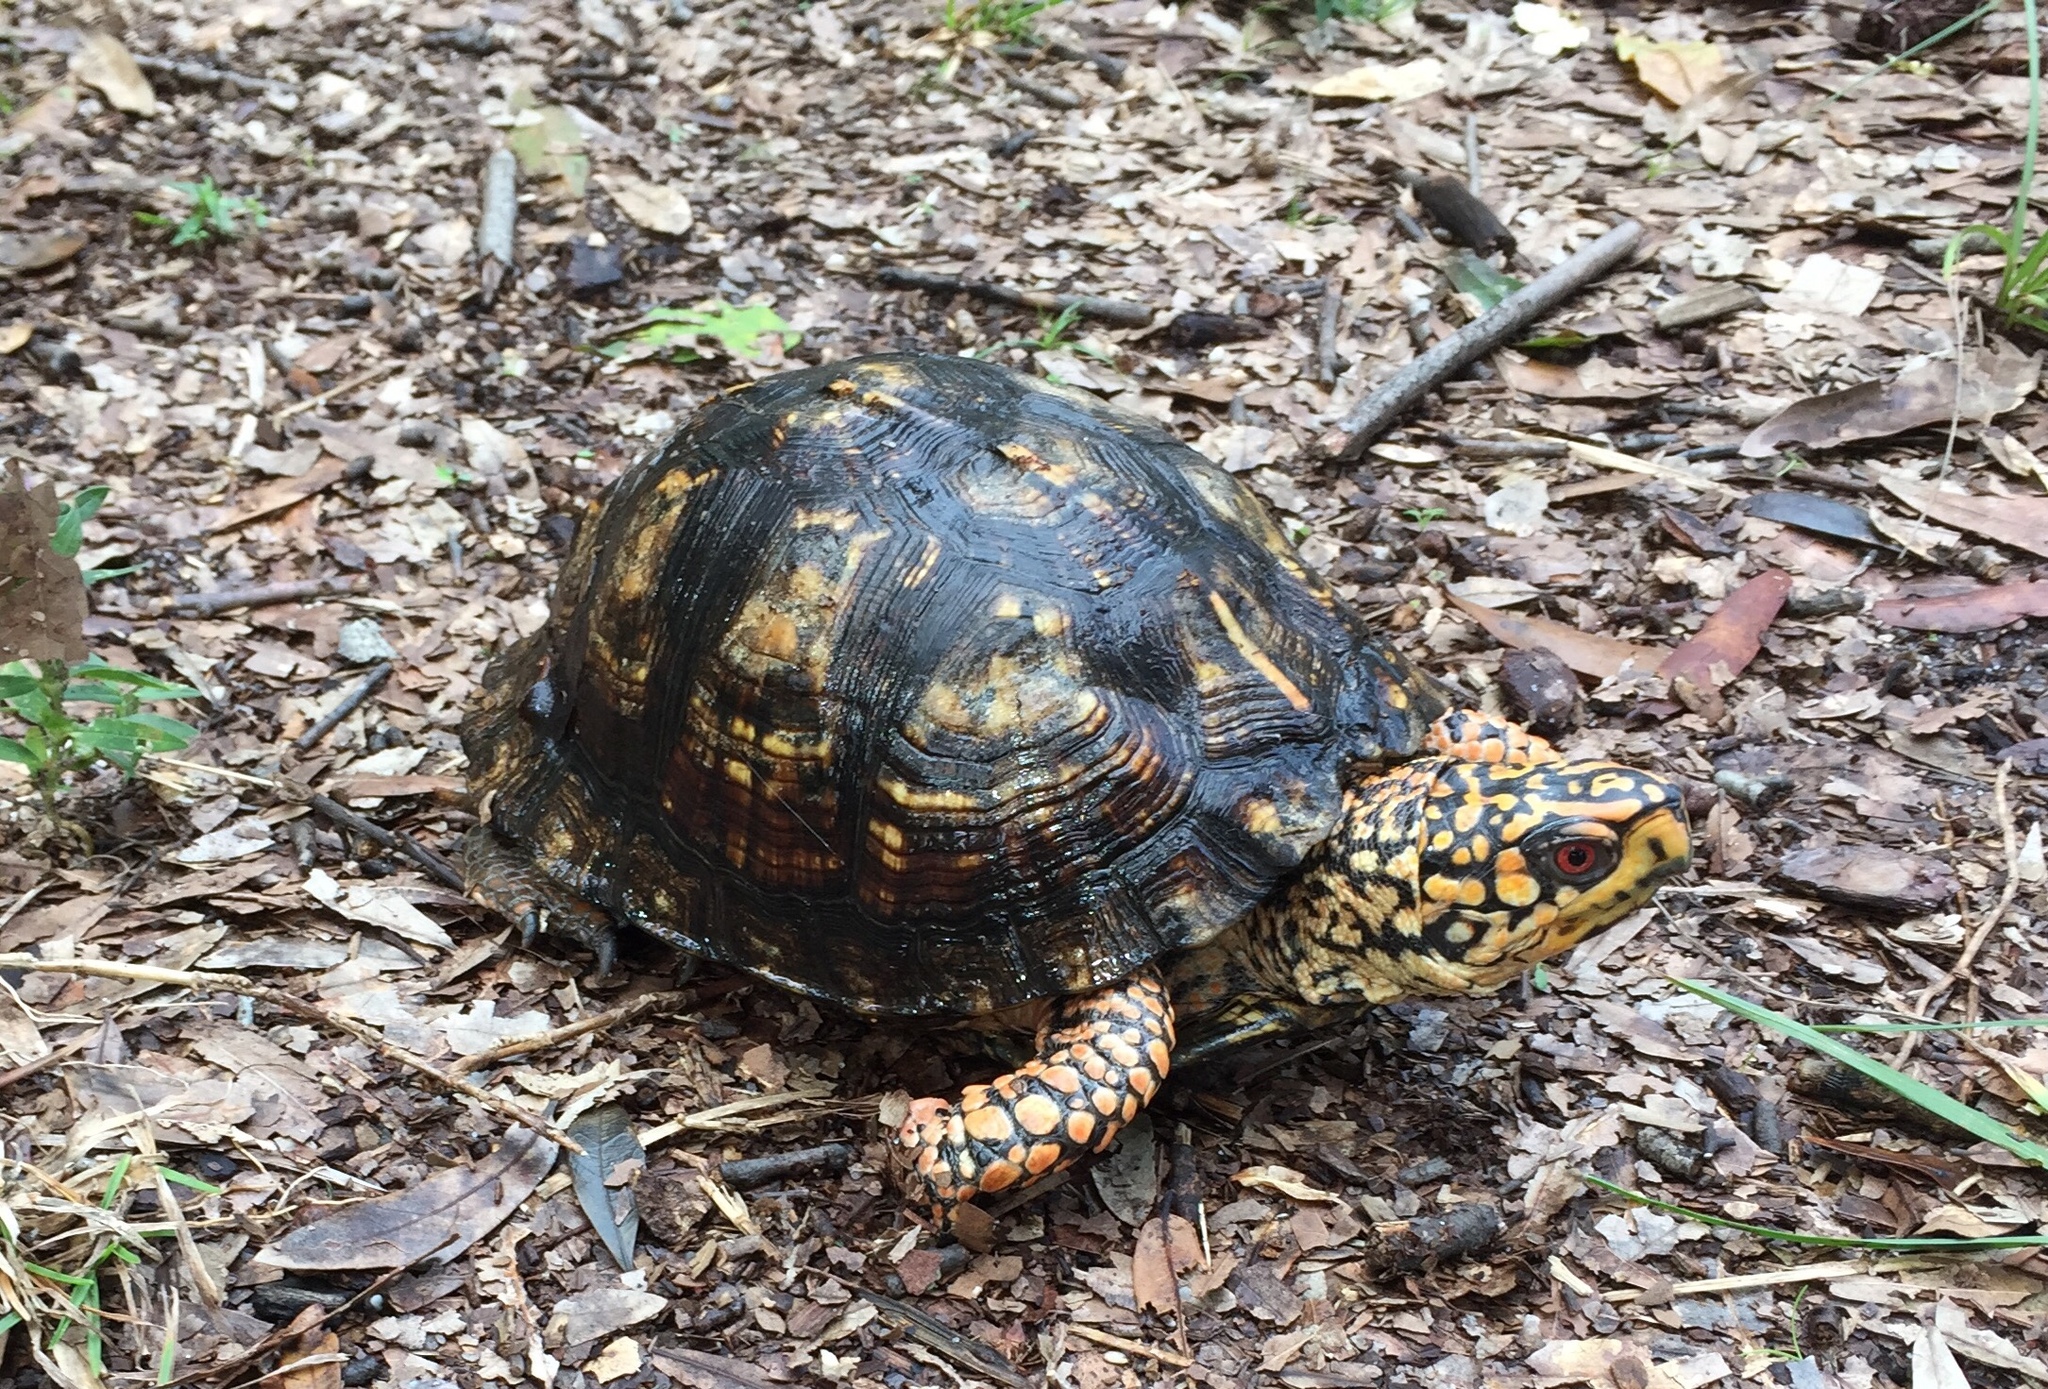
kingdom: Animalia
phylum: Chordata
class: Testudines
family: Emydidae
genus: Terrapene
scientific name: Terrapene carolina
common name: Common box turtle
